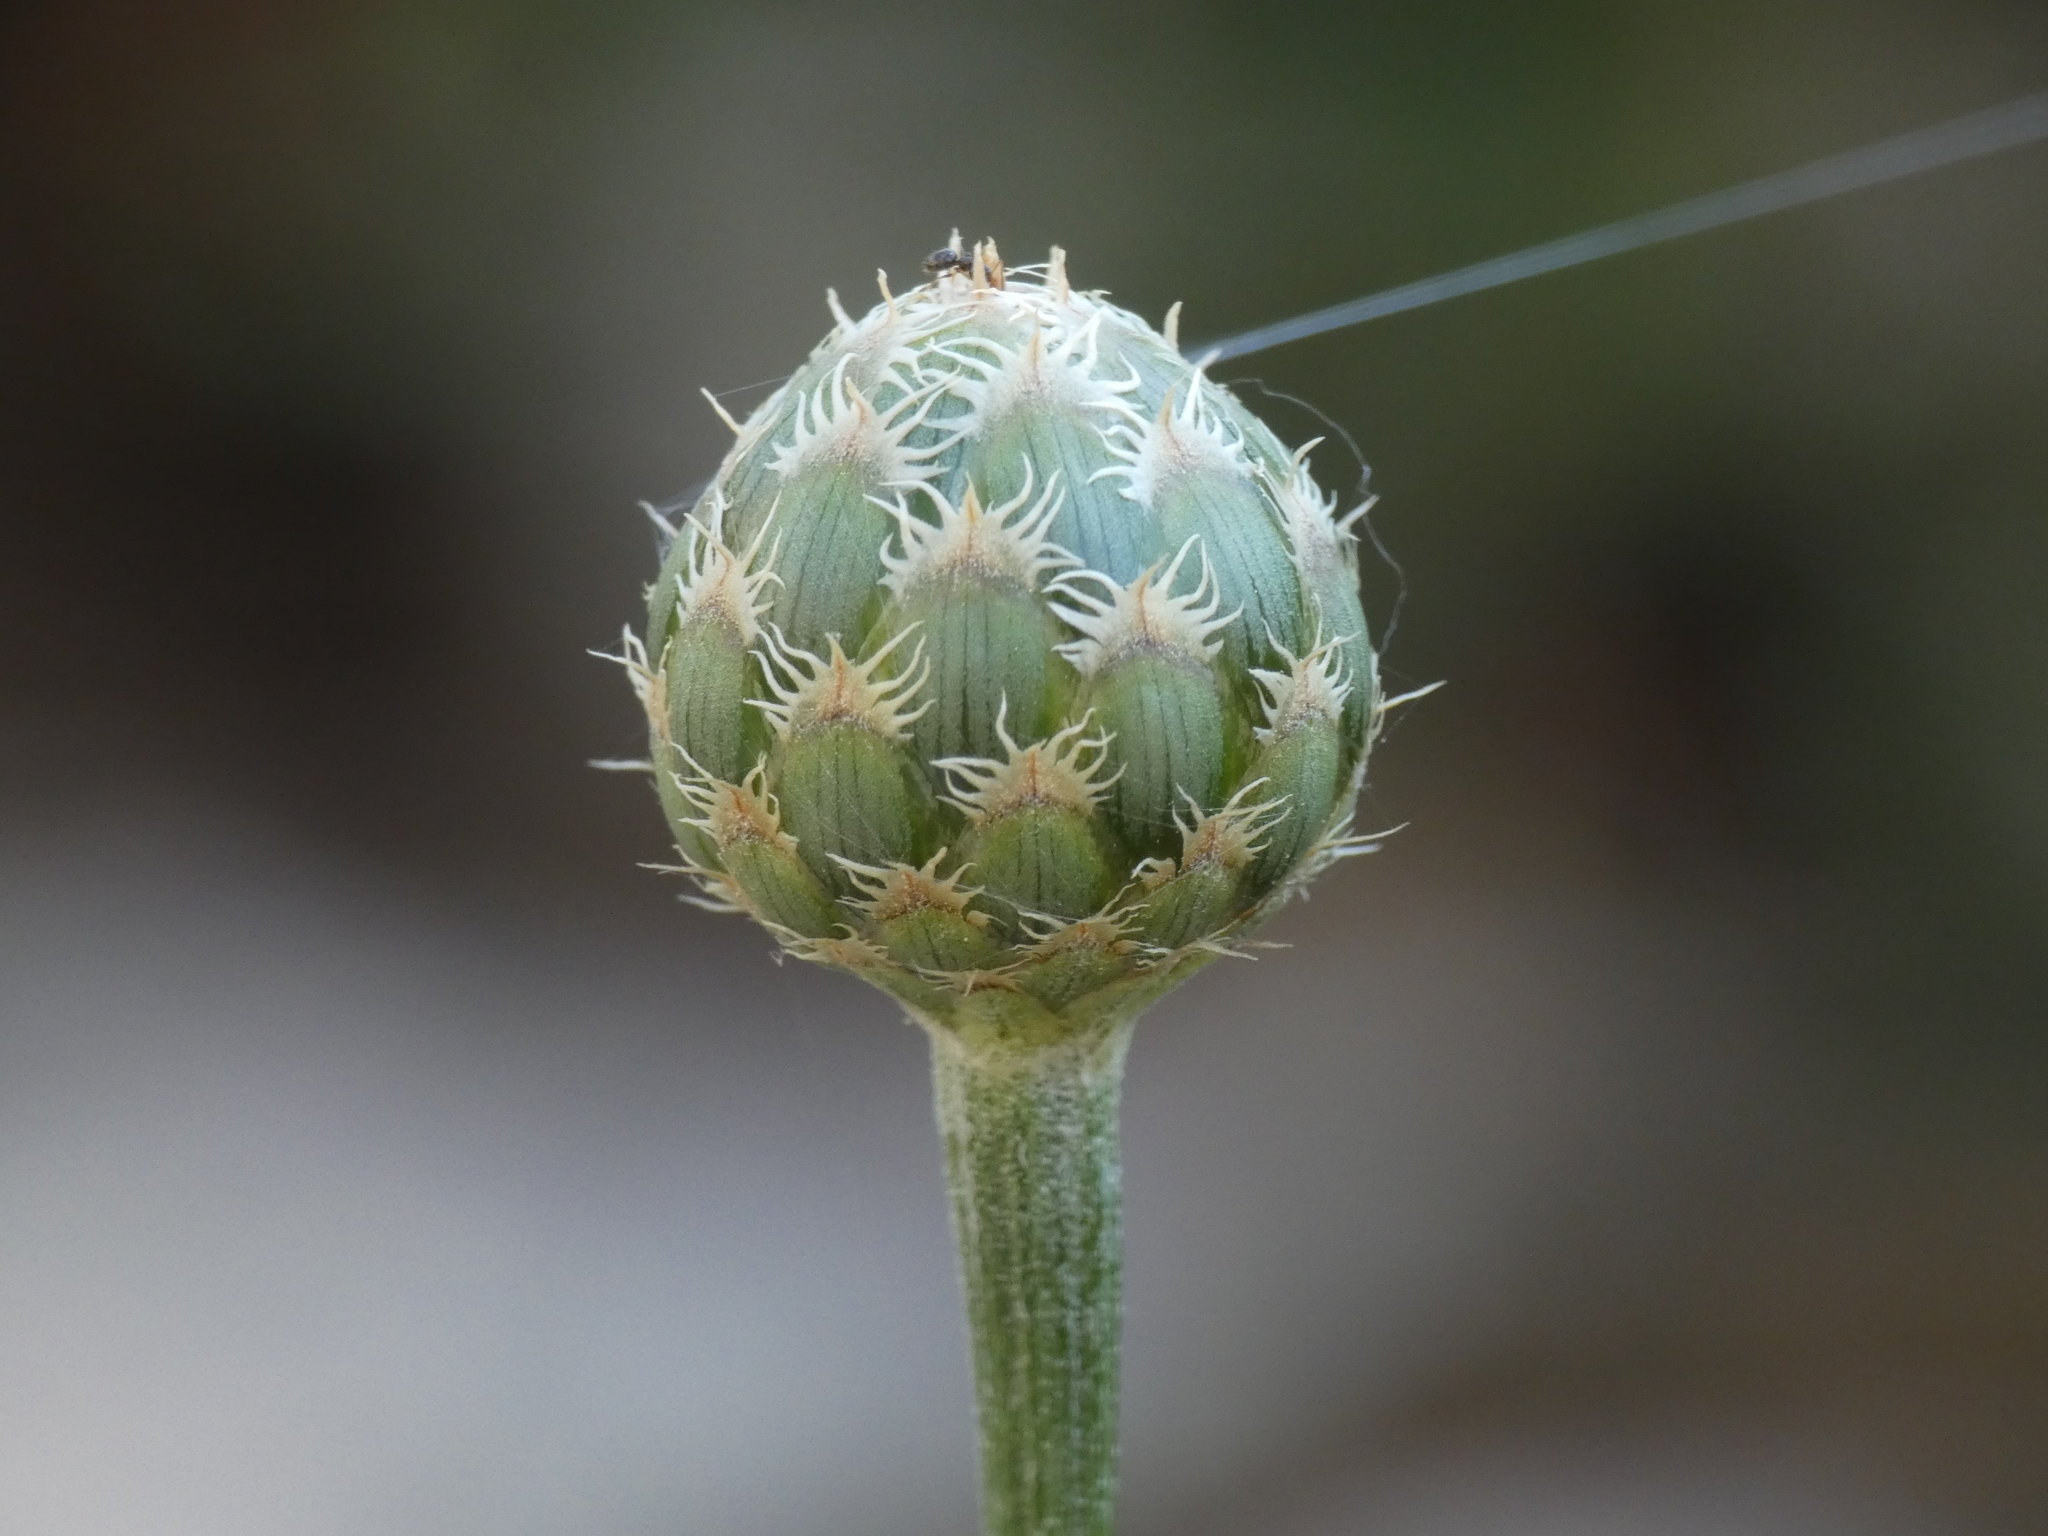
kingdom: Plantae
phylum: Tracheophyta
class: Magnoliopsida
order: Asterales
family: Asteraceae
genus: Cheirolophus
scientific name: Cheirolophus intybaceus
